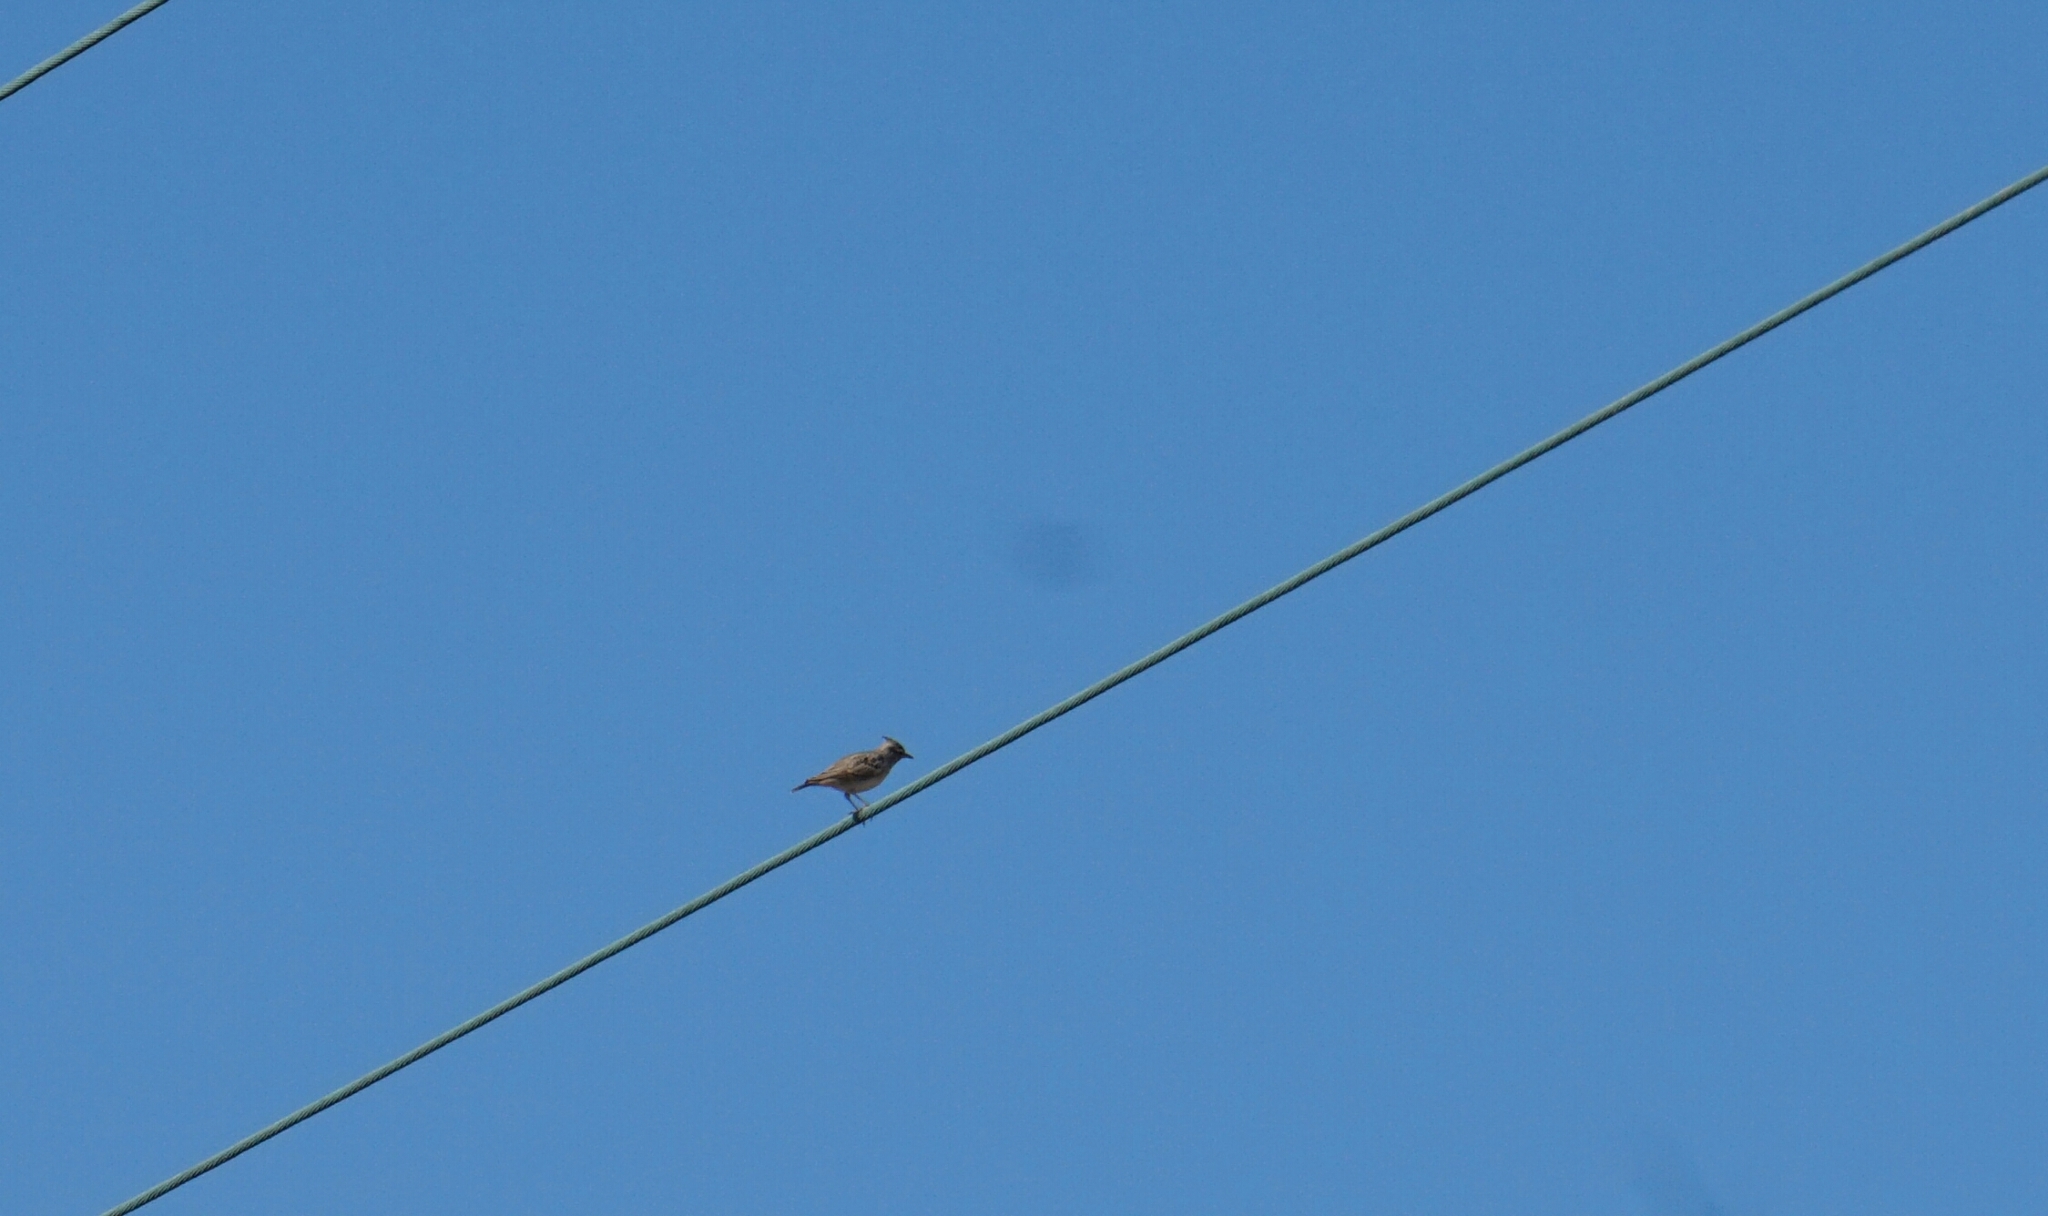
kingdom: Animalia
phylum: Chordata
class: Aves
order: Passeriformes
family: Alaudidae
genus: Galerida
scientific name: Galerida cristata
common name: Crested lark
